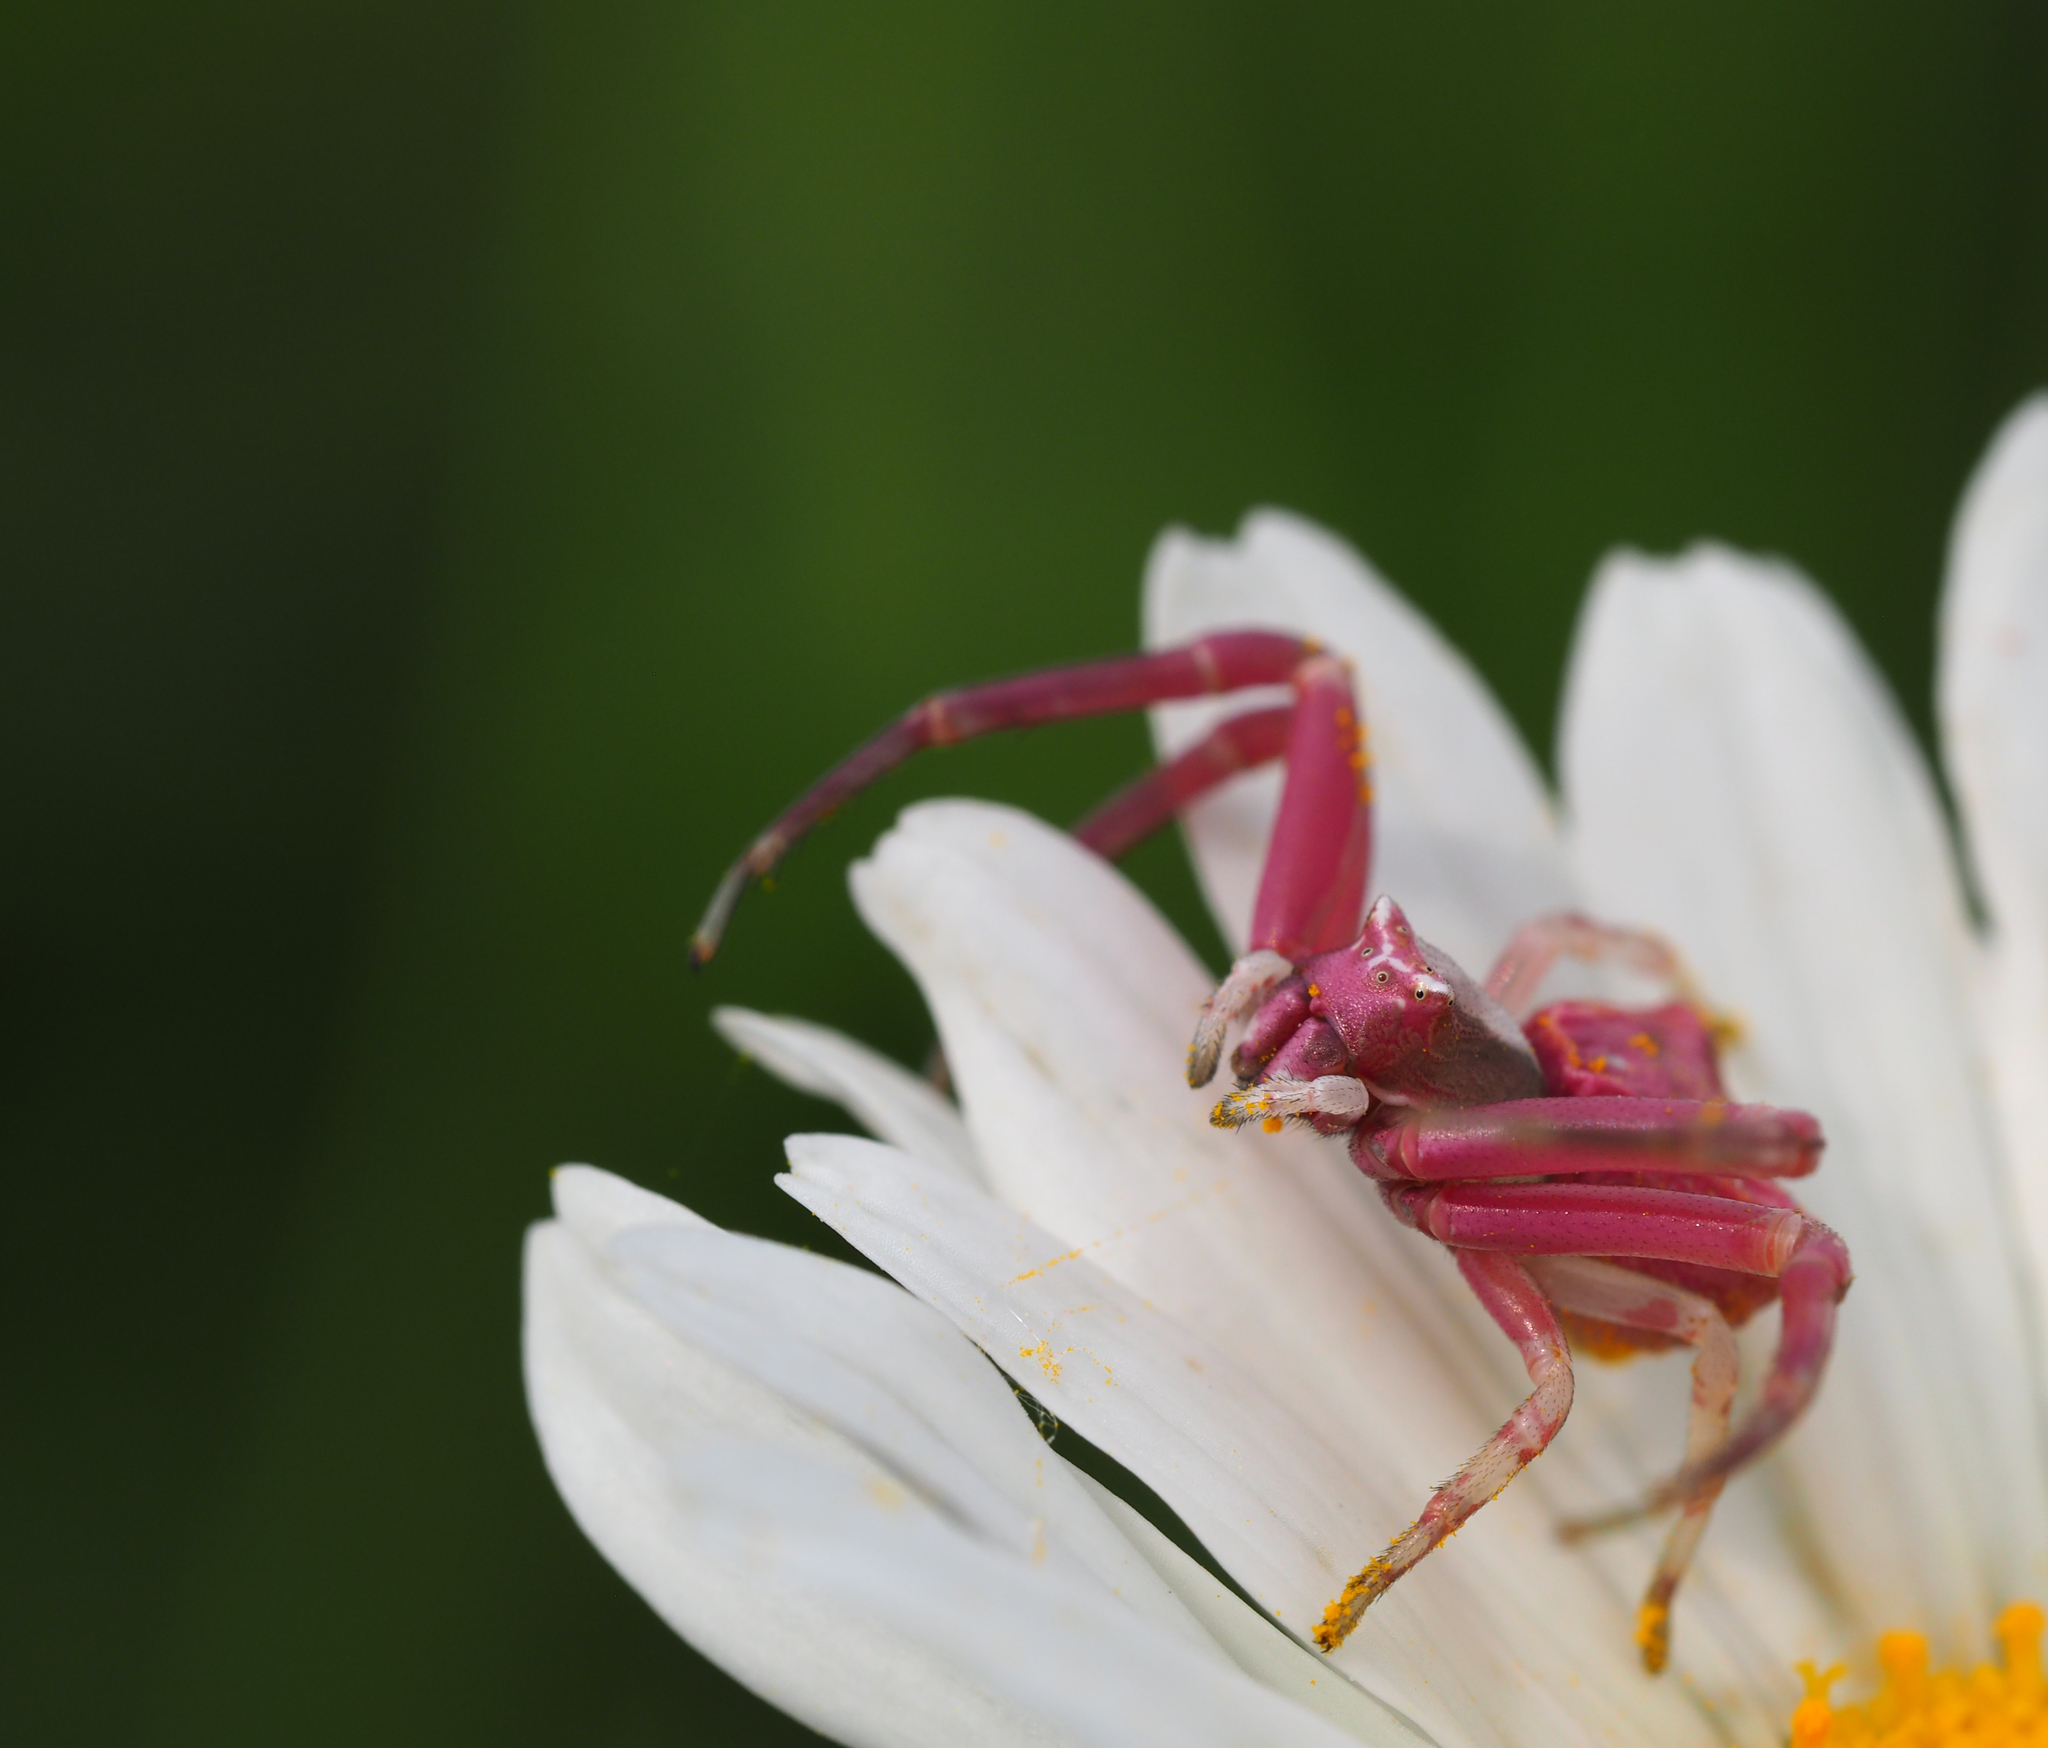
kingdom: Animalia
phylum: Arthropoda
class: Arachnida
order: Araneae
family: Thomisidae
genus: Thomisus
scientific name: Thomisus onustus
